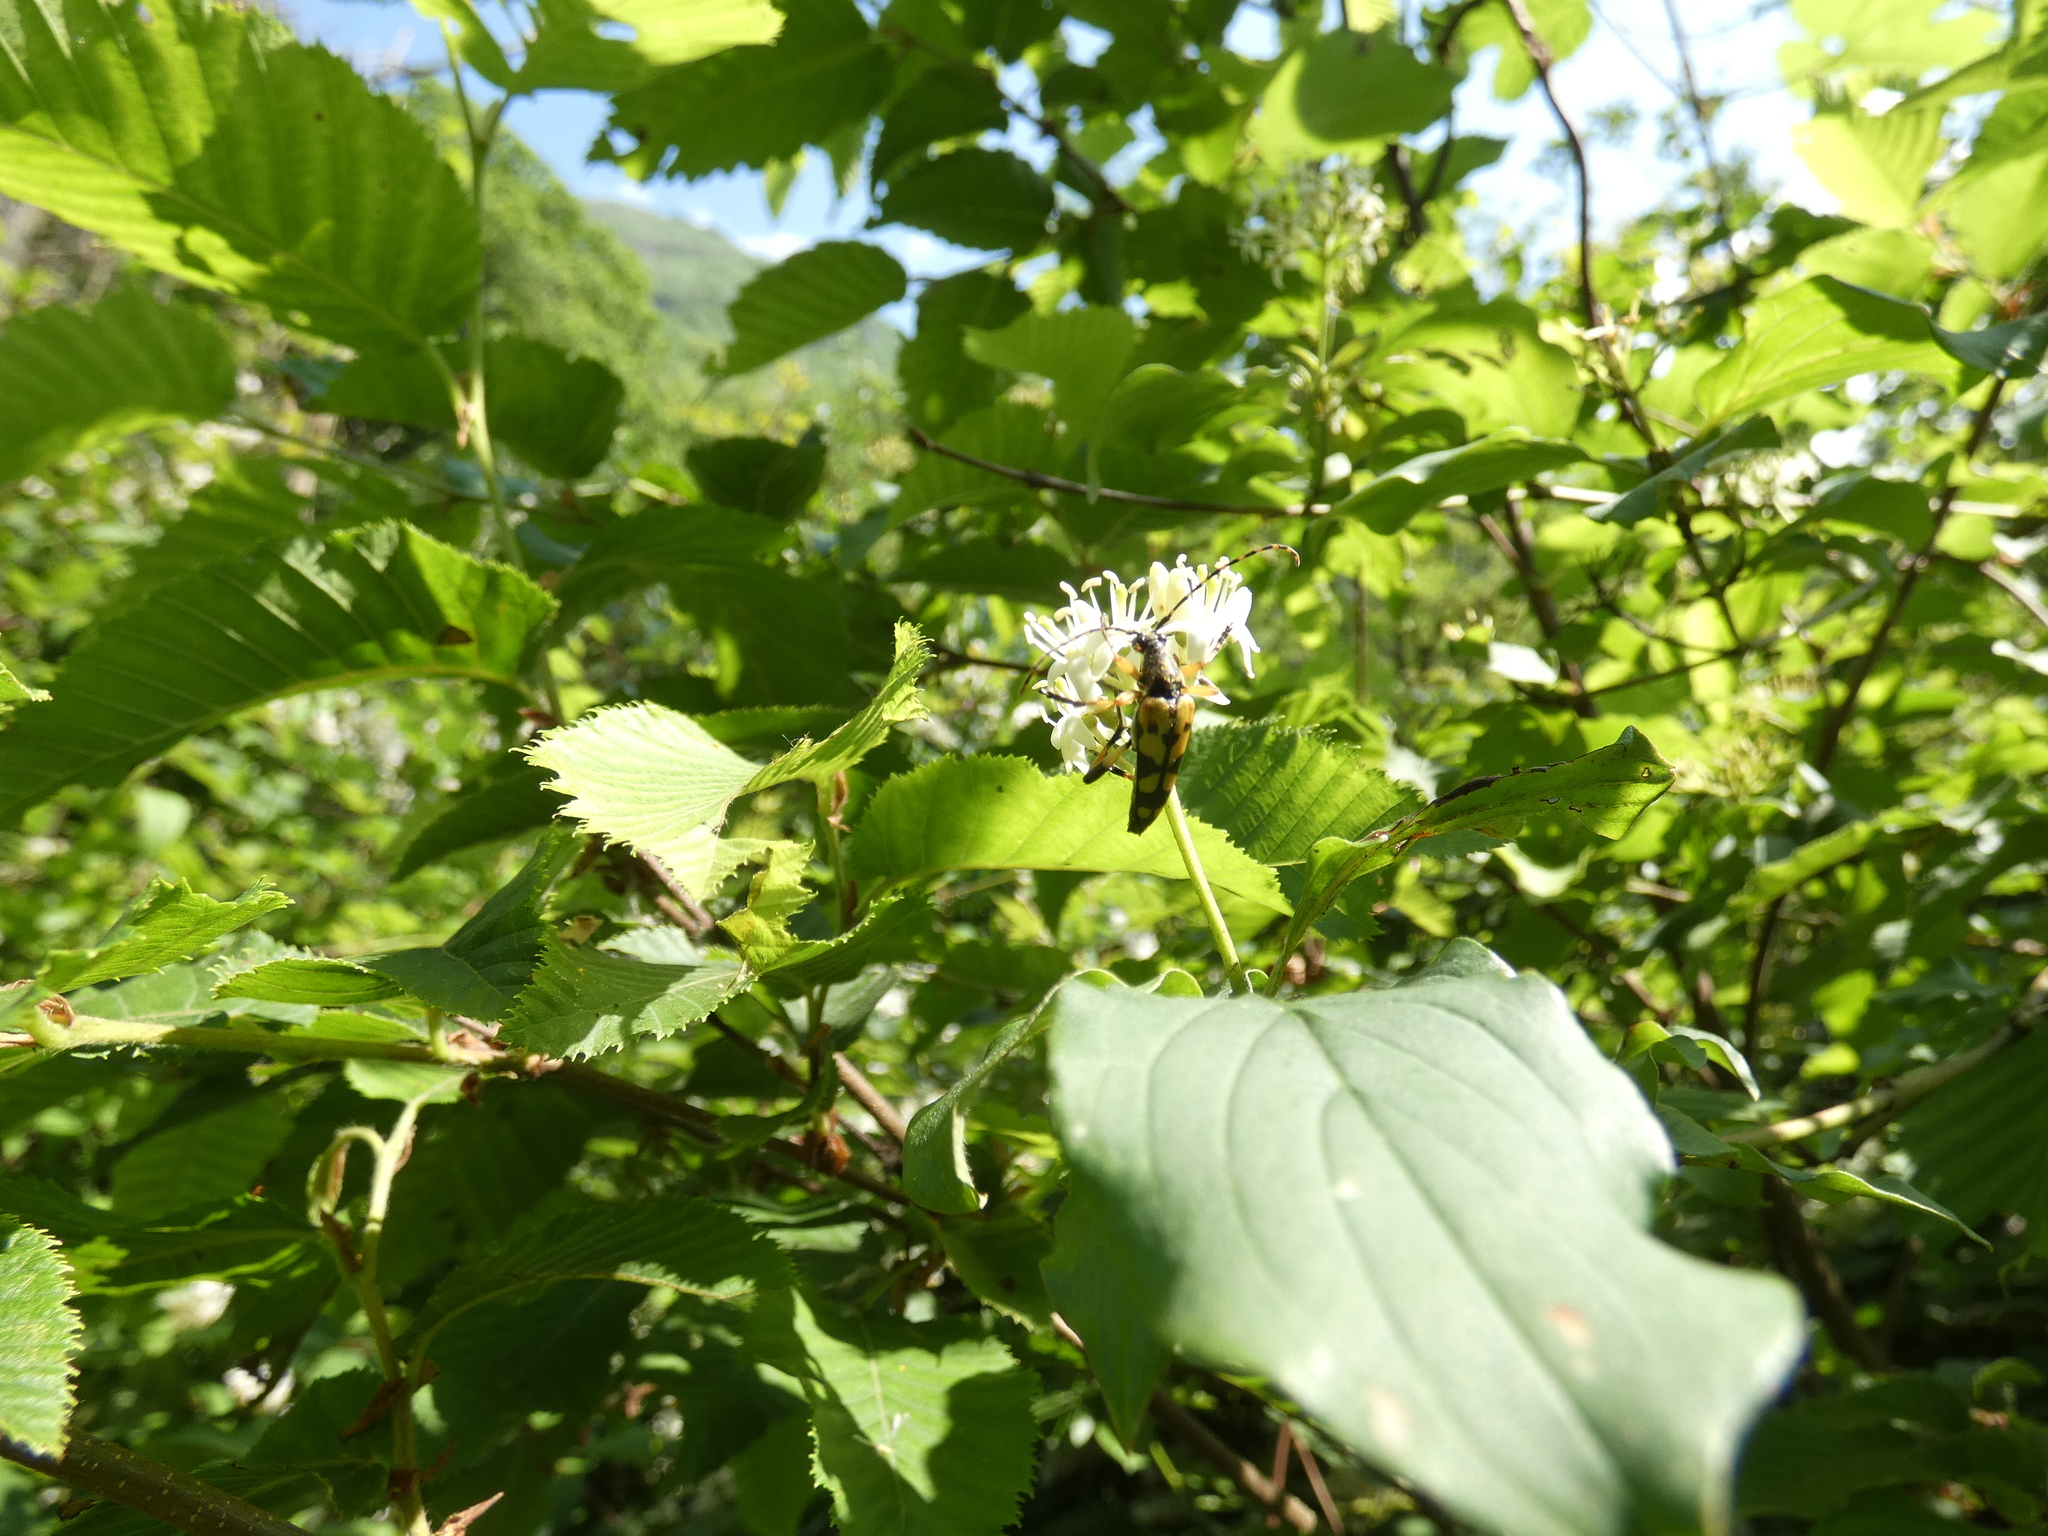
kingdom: Animalia
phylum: Arthropoda
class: Insecta
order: Coleoptera
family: Cerambycidae
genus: Rutpela
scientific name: Rutpela maculata
